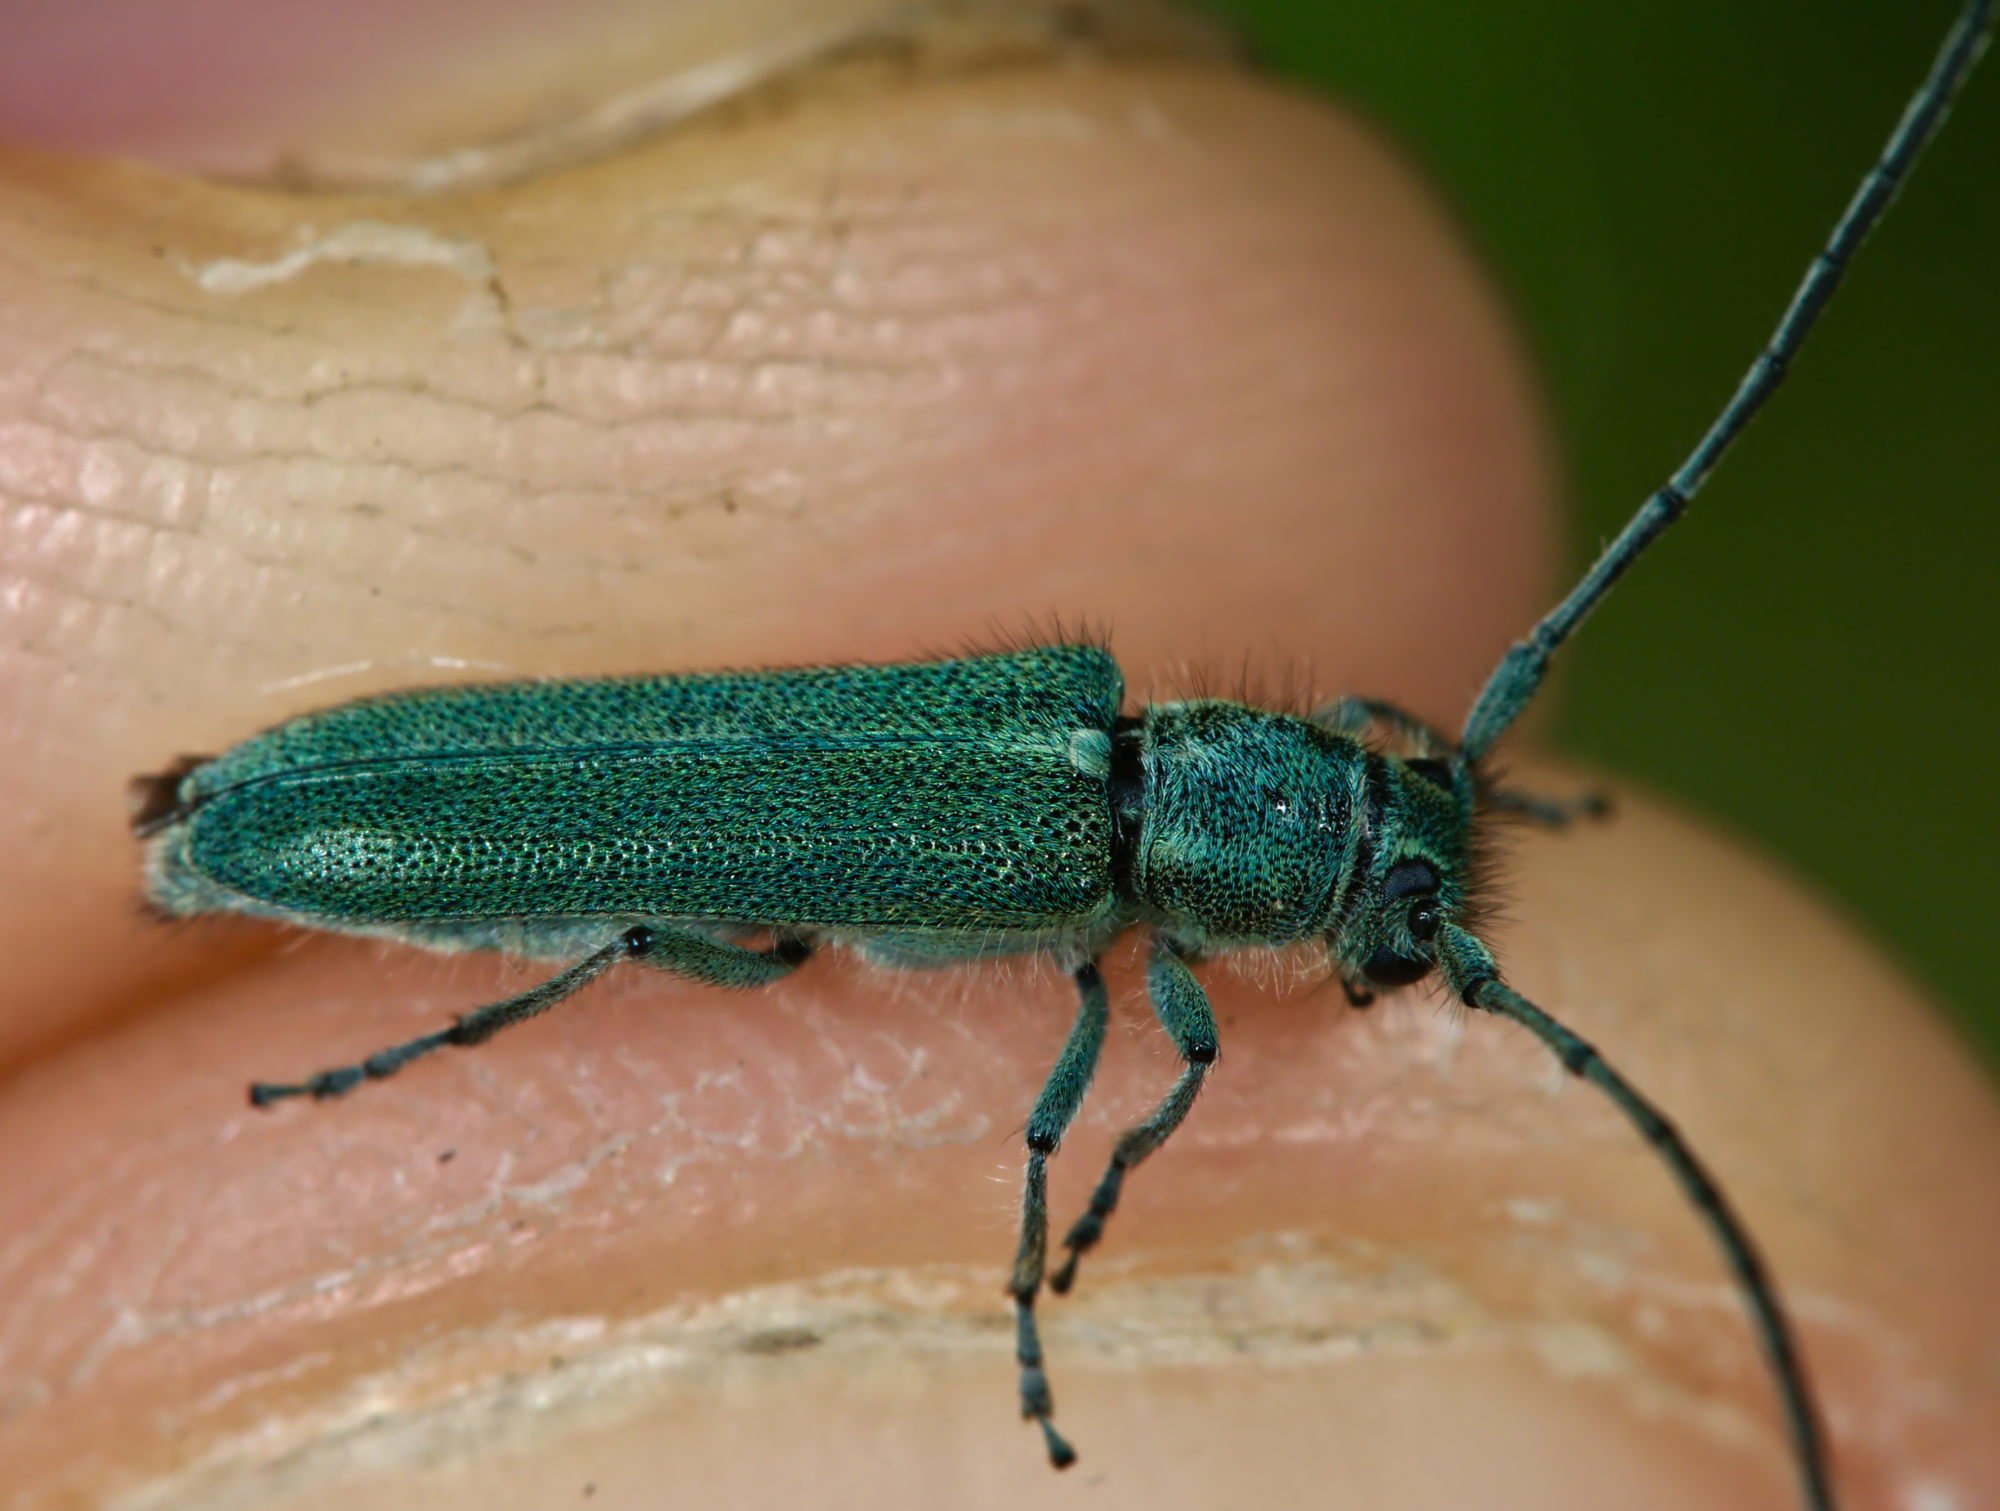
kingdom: Animalia
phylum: Arthropoda
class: Insecta
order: Coleoptera
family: Cerambycidae
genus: Phytoecia
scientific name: Phytoecia coerulescens
